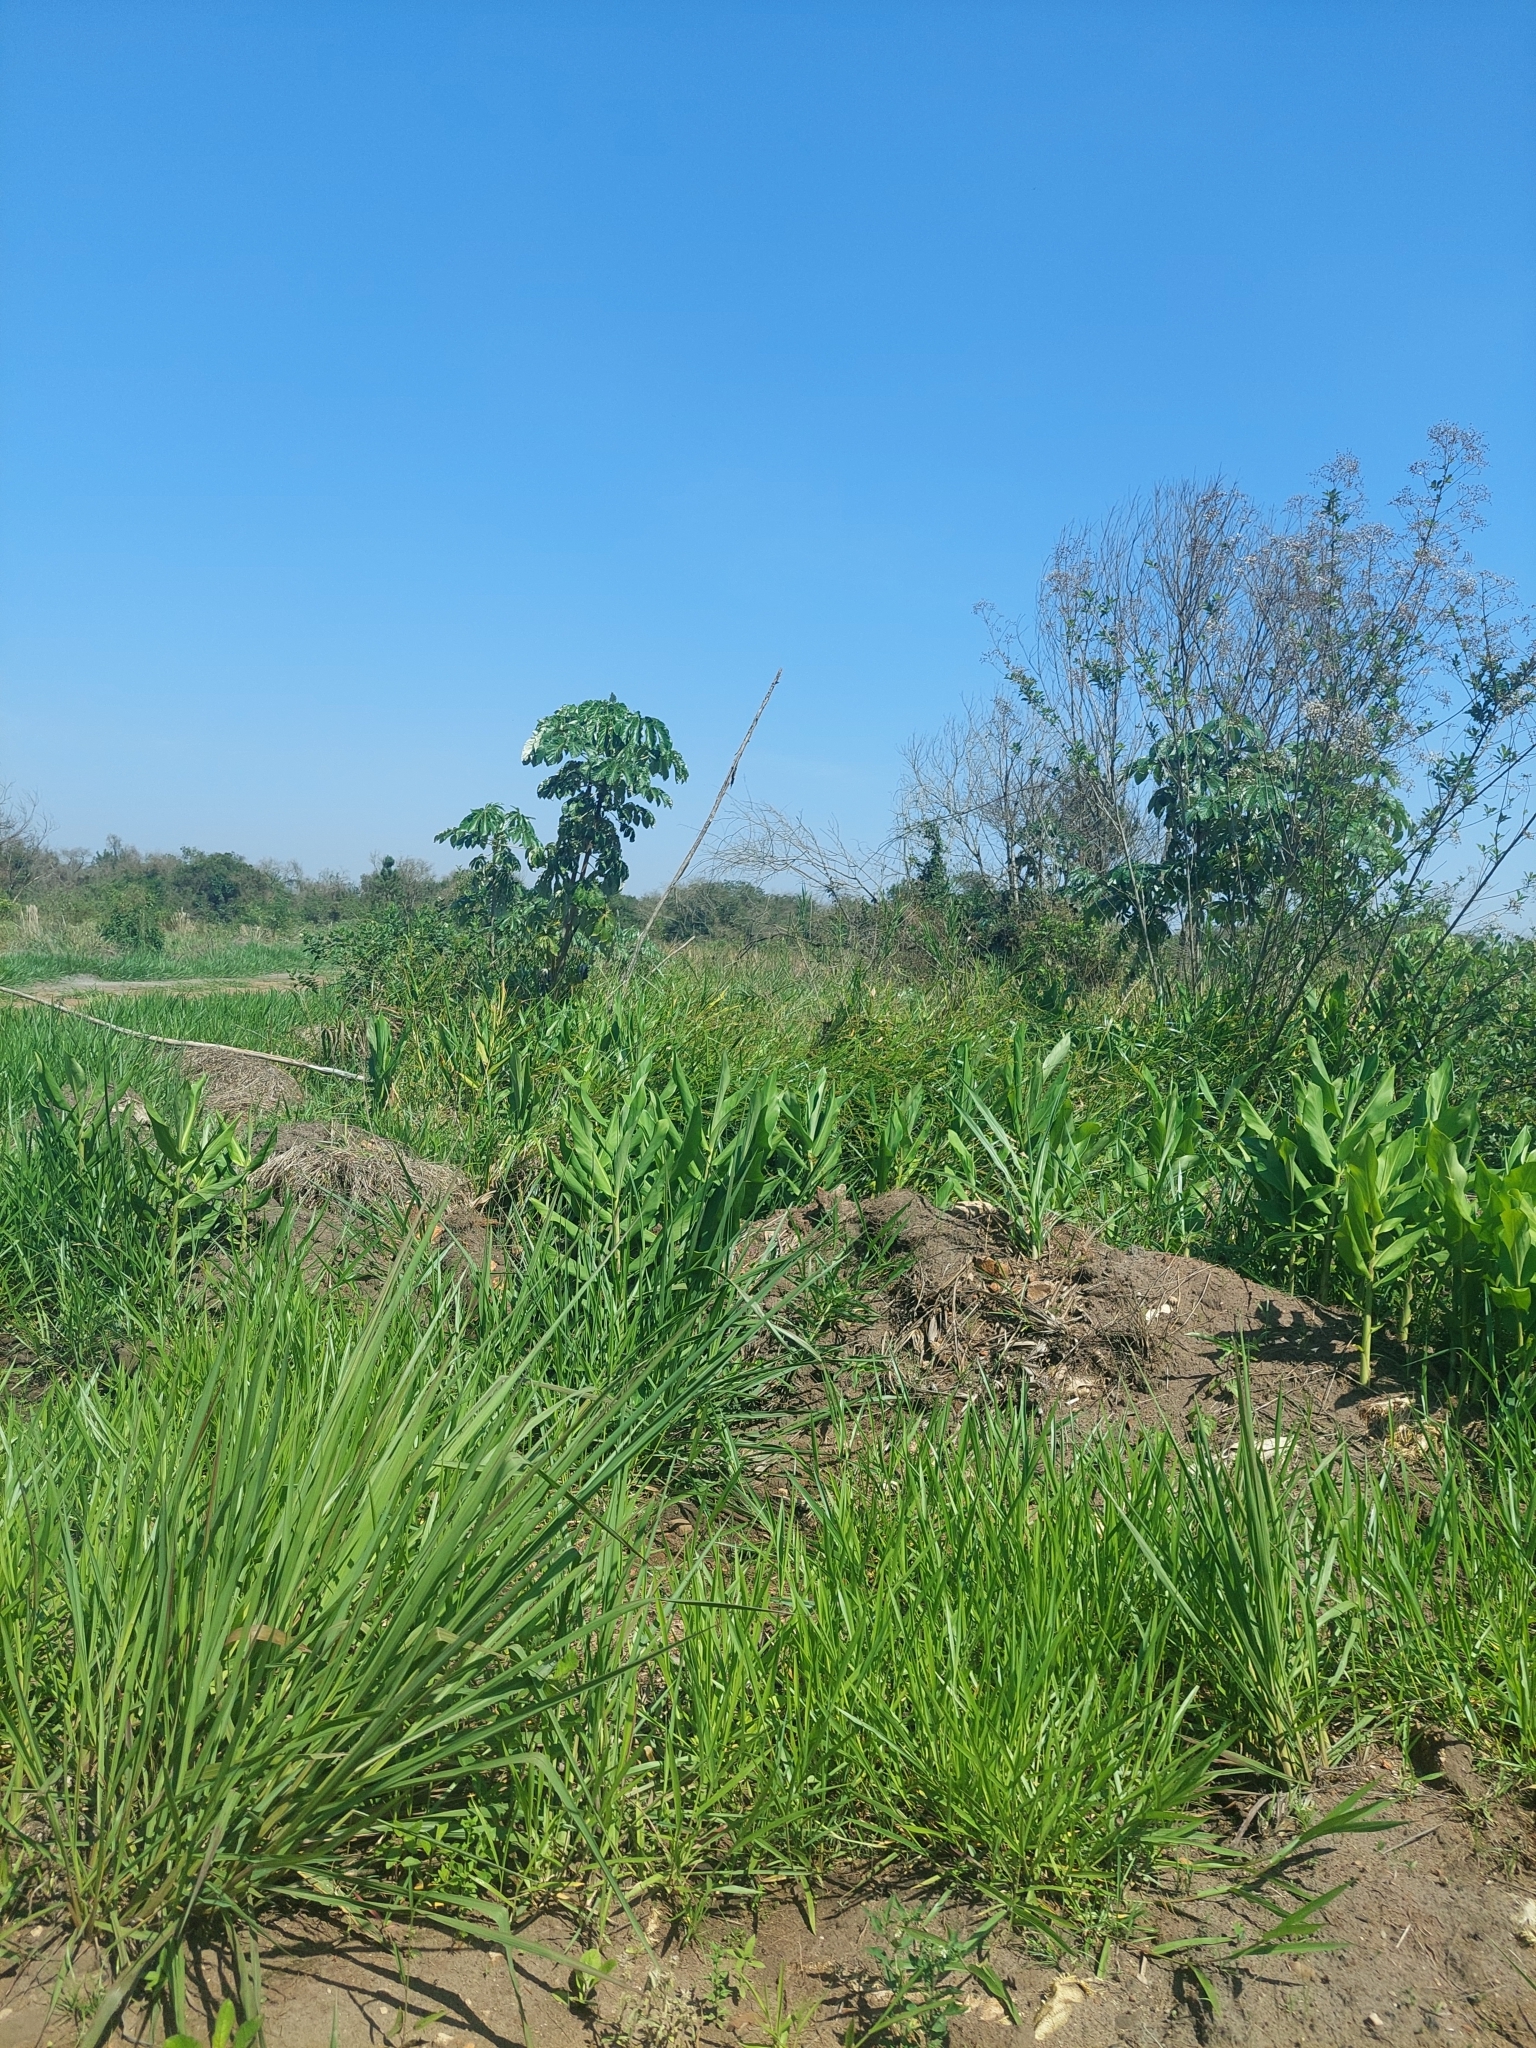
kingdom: Plantae
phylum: Tracheophyta
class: Liliopsida
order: Zingiberales
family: Zingiberaceae
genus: Hedychium
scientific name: Hedychium coronarium
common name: White garland-lily
